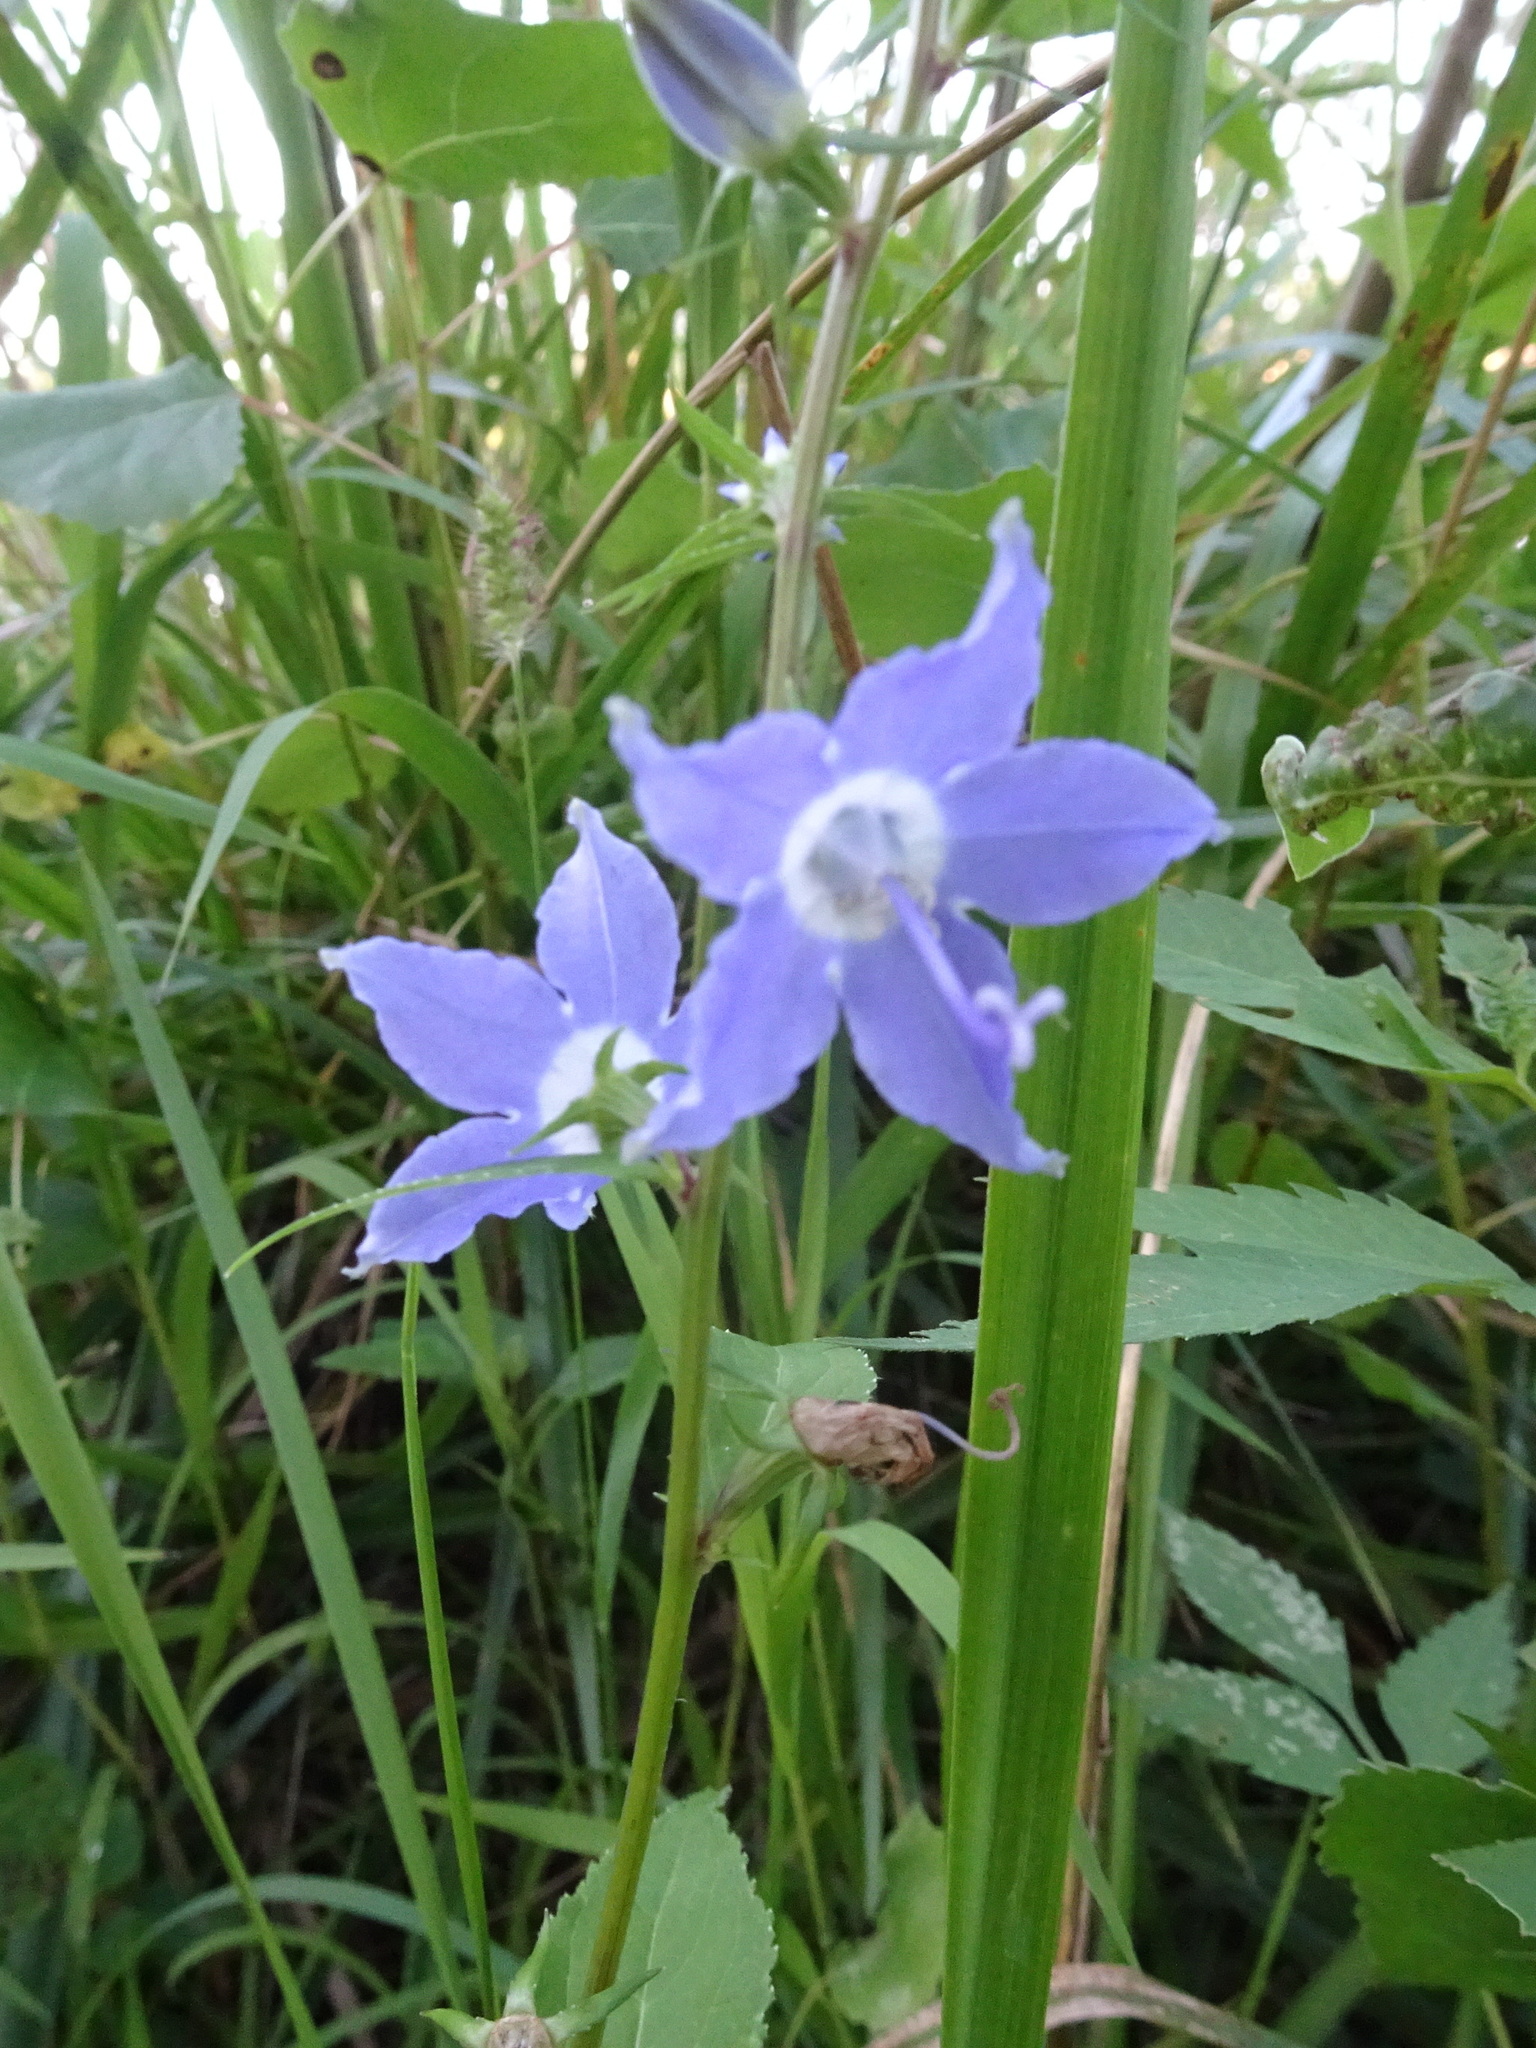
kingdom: Plantae
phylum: Tracheophyta
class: Magnoliopsida
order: Asterales
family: Campanulaceae
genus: Campanulastrum
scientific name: Campanulastrum americanum
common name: American bellflower
